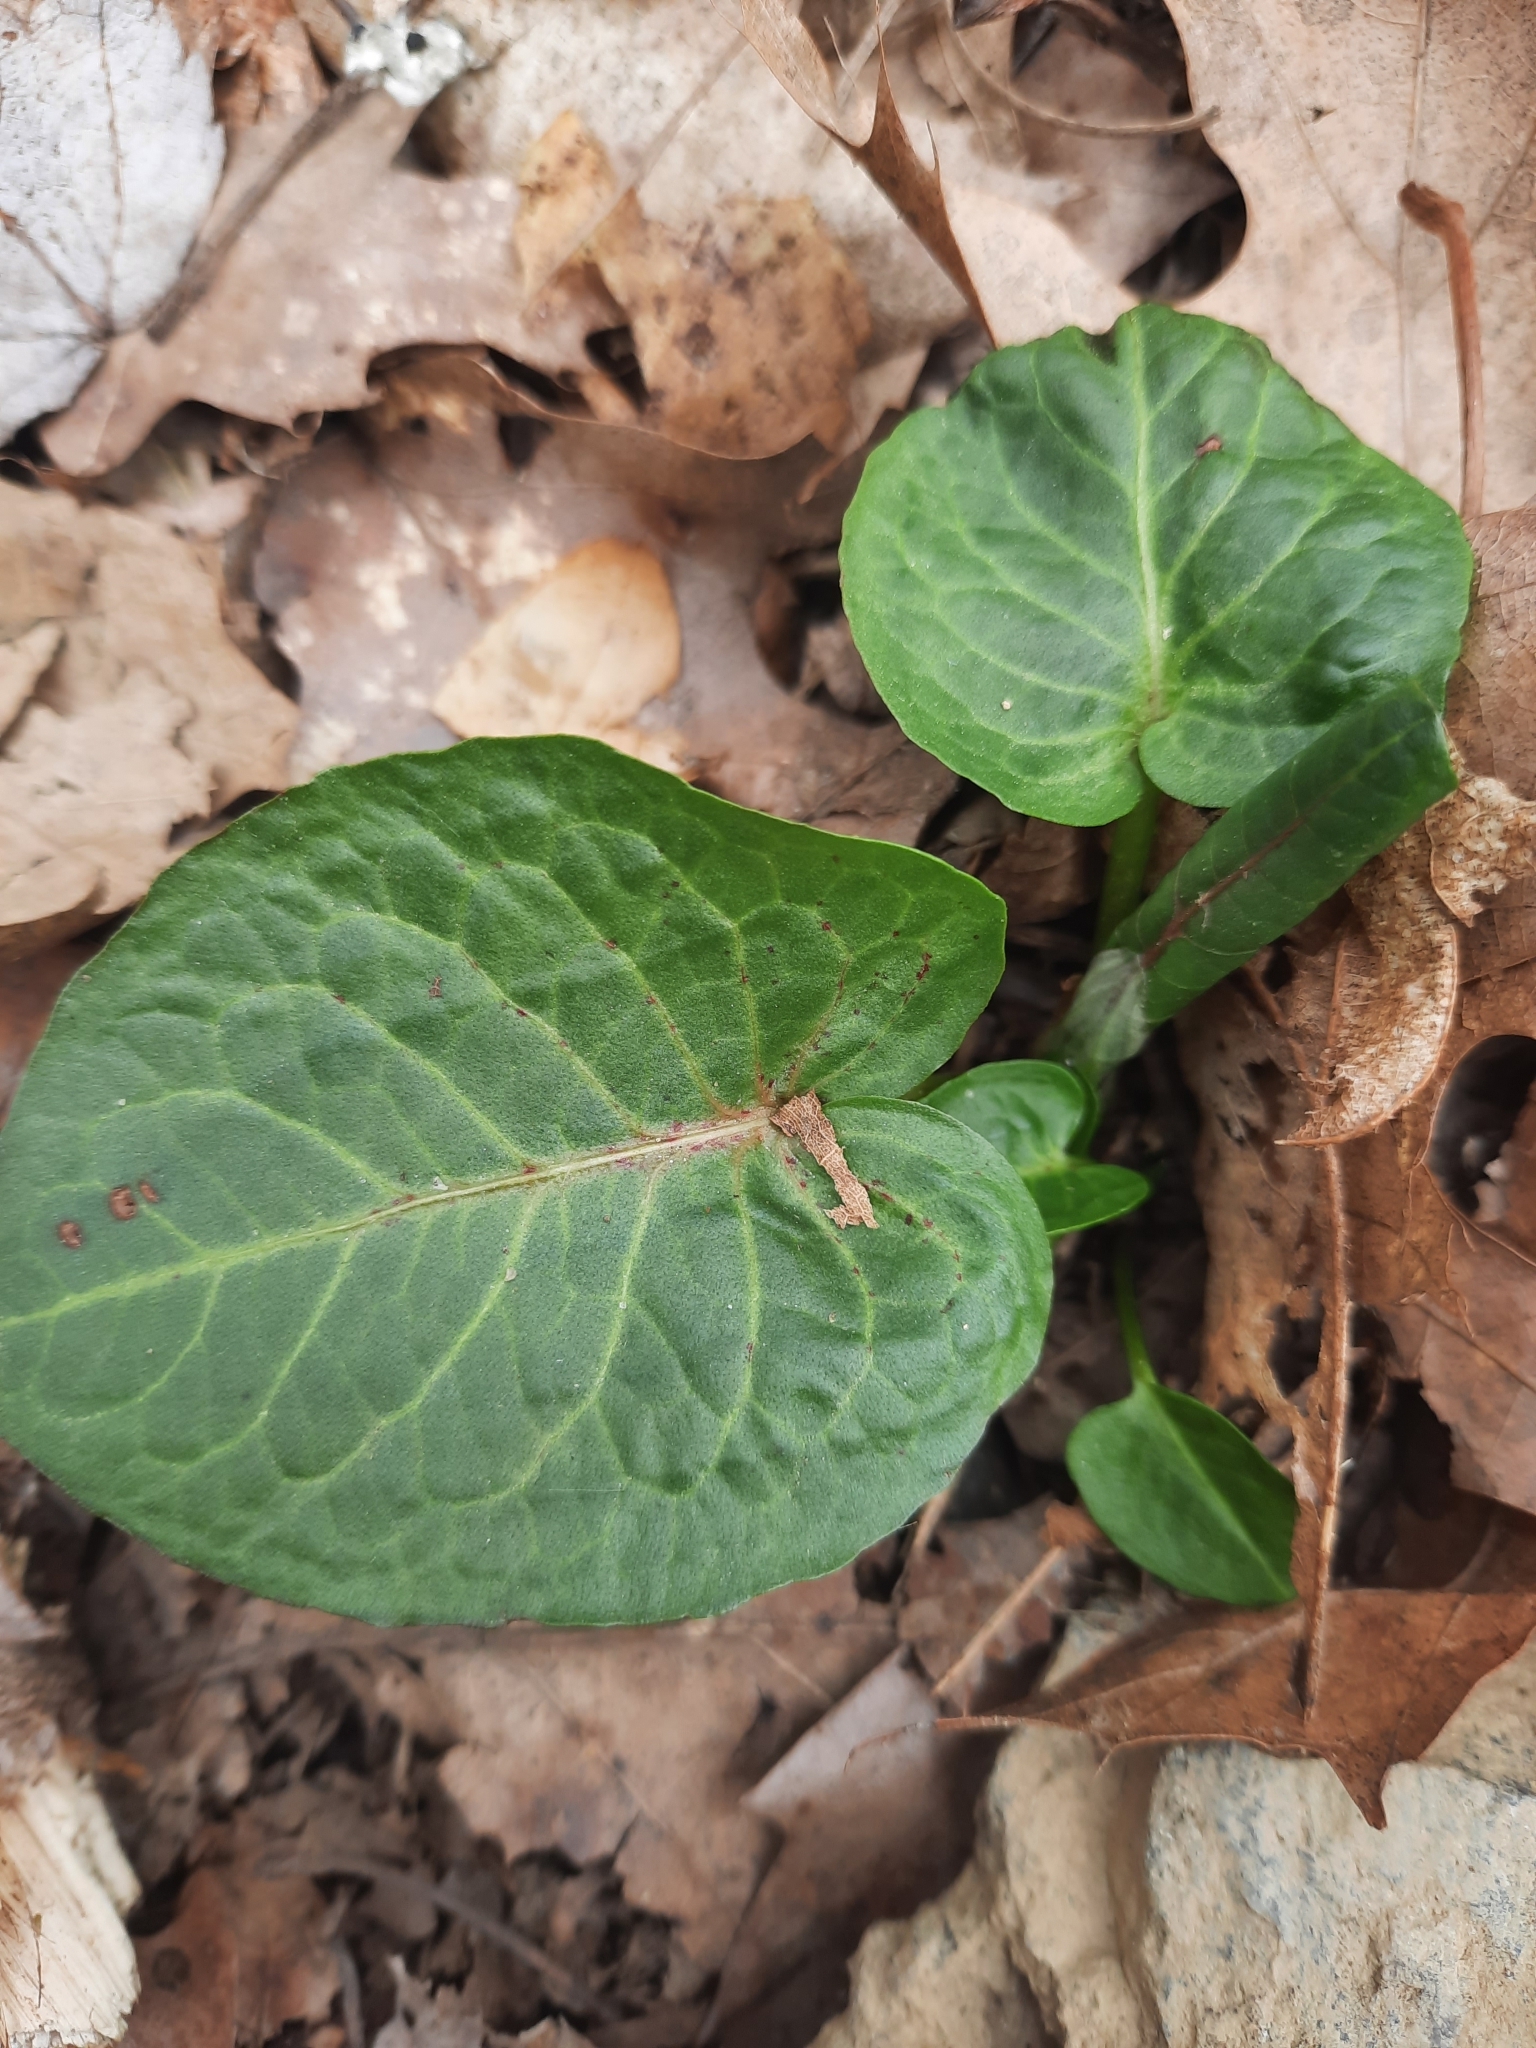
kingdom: Plantae
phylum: Tracheophyta
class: Magnoliopsida
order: Caryophyllales
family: Polygonaceae
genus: Rumex
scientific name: Rumex obtusifolius
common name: Bitter dock
